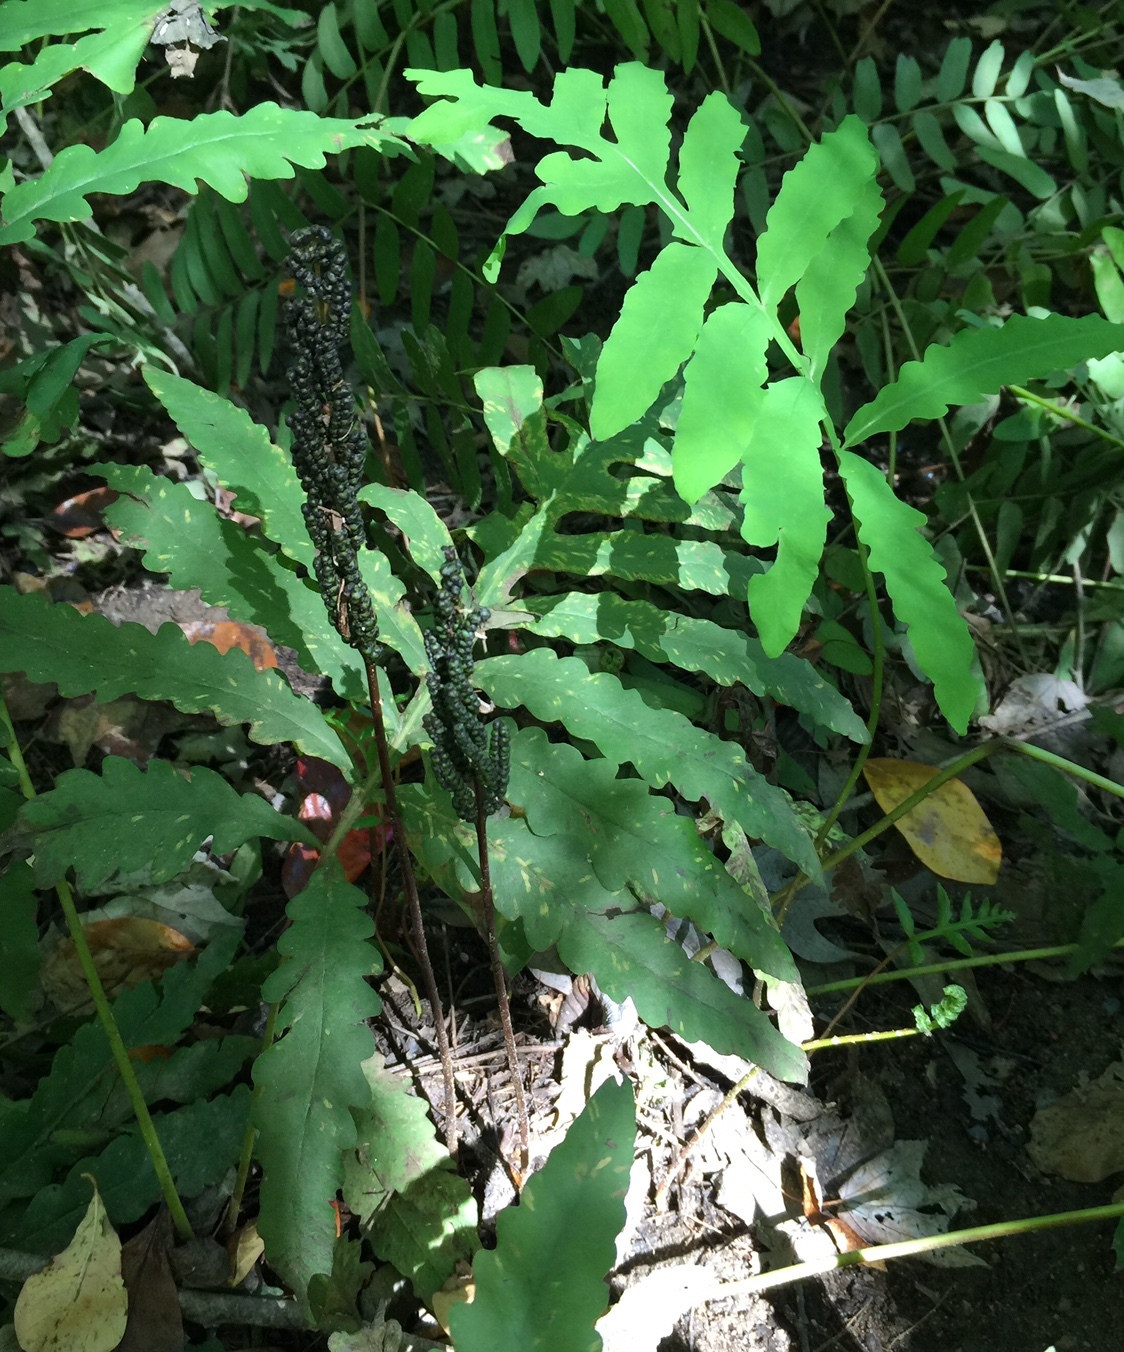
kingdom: Plantae
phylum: Tracheophyta
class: Polypodiopsida
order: Polypodiales
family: Onocleaceae
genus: Onoclea
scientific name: Onoclea sensibilis
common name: Sensitive fern
